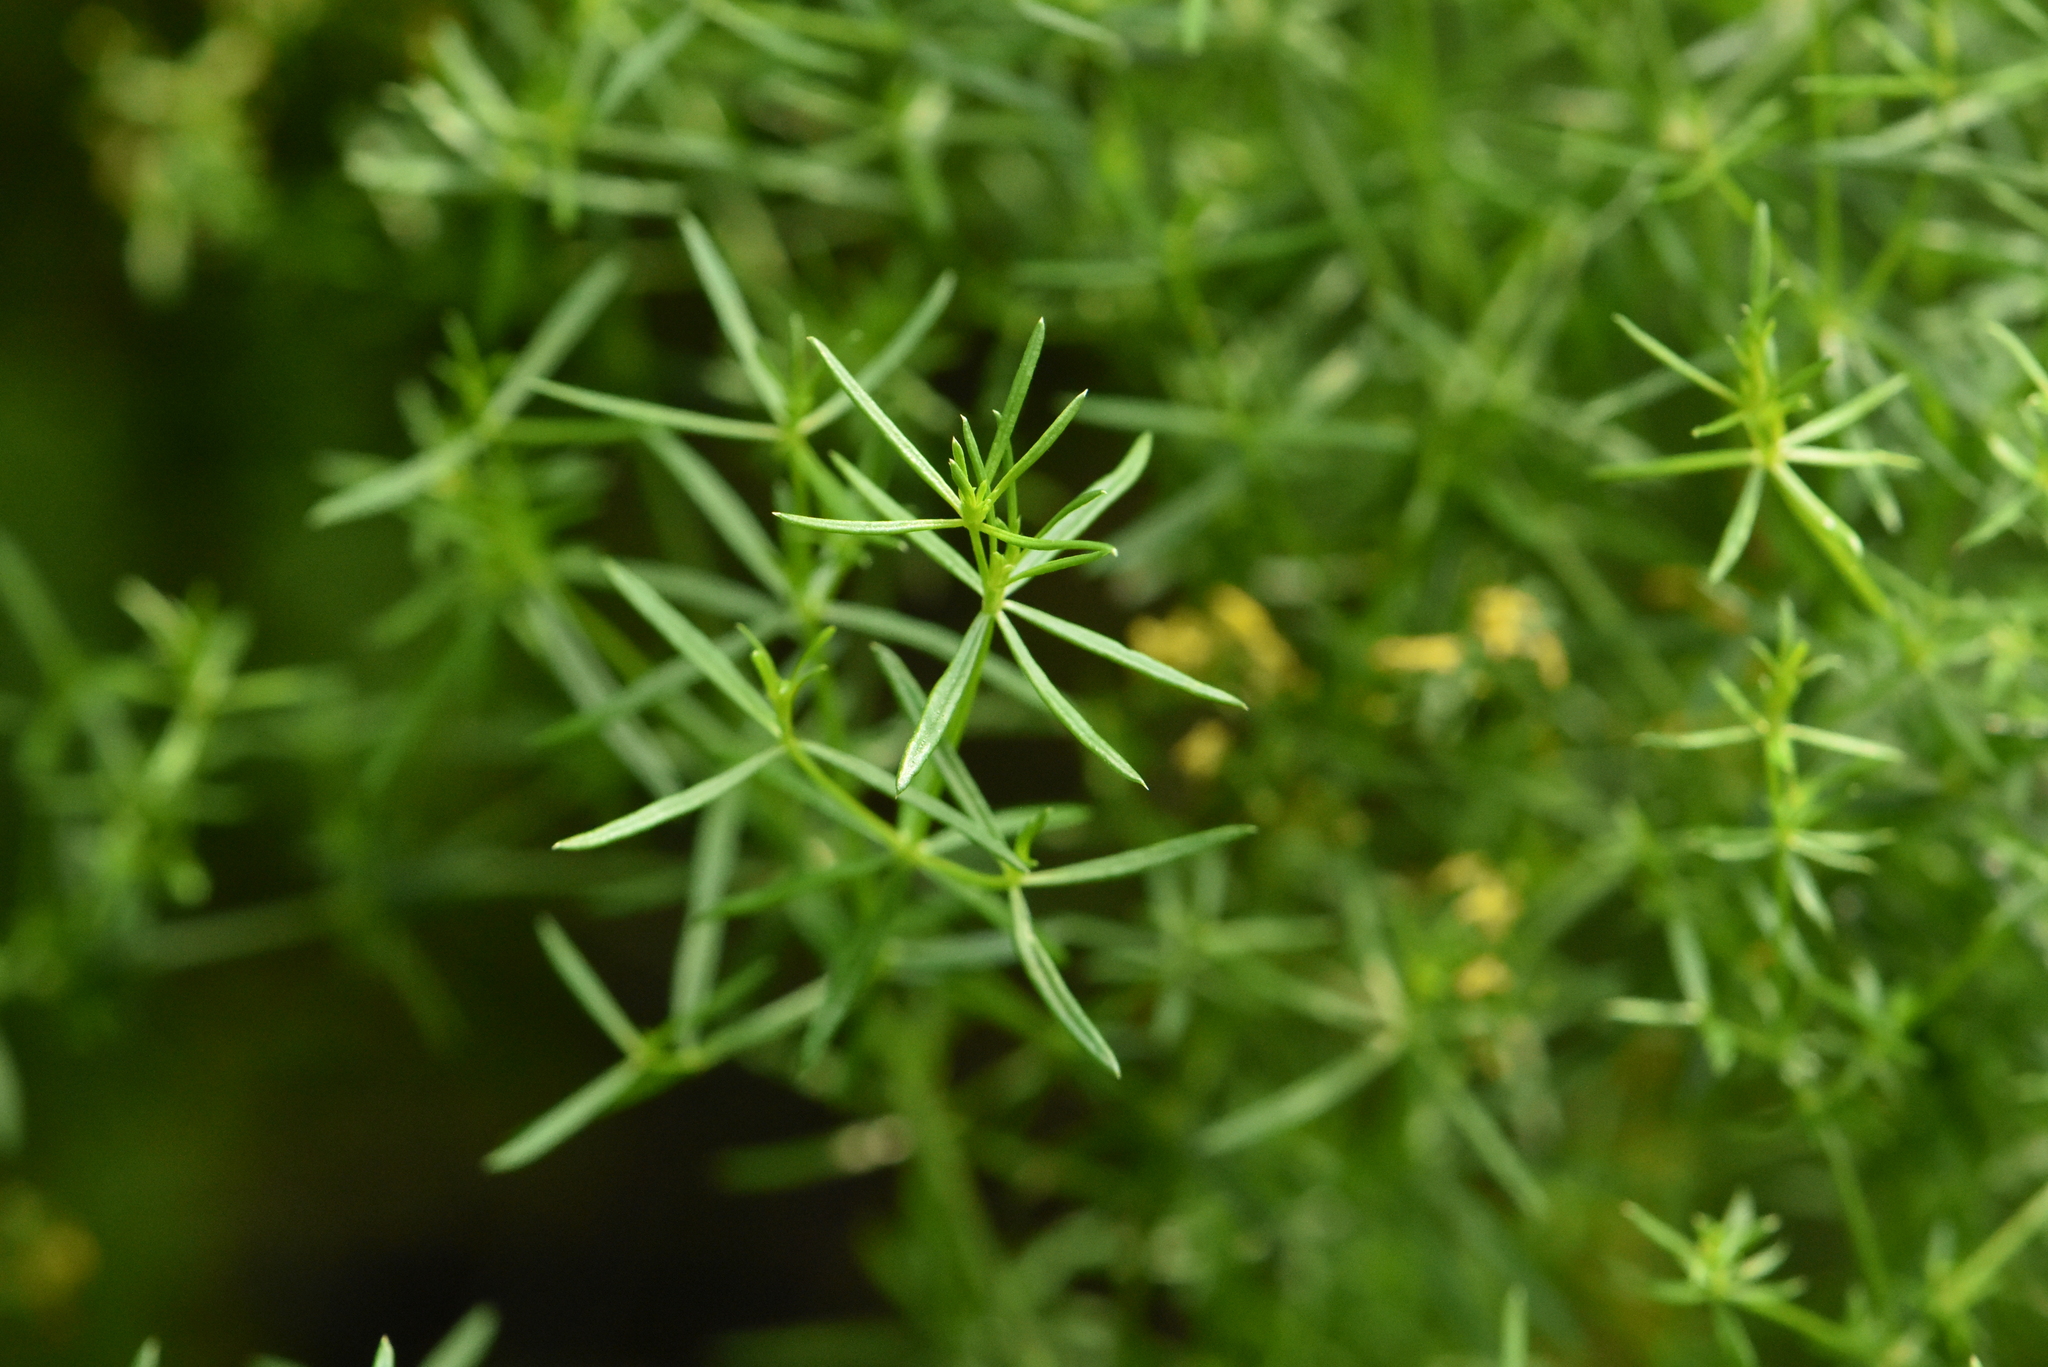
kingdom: Plantae
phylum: Tracheophyta
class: Magnoliopsida
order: Gentianales
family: Rubiaceae
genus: Galium
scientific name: Galium verum
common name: Lady's bedstraw
